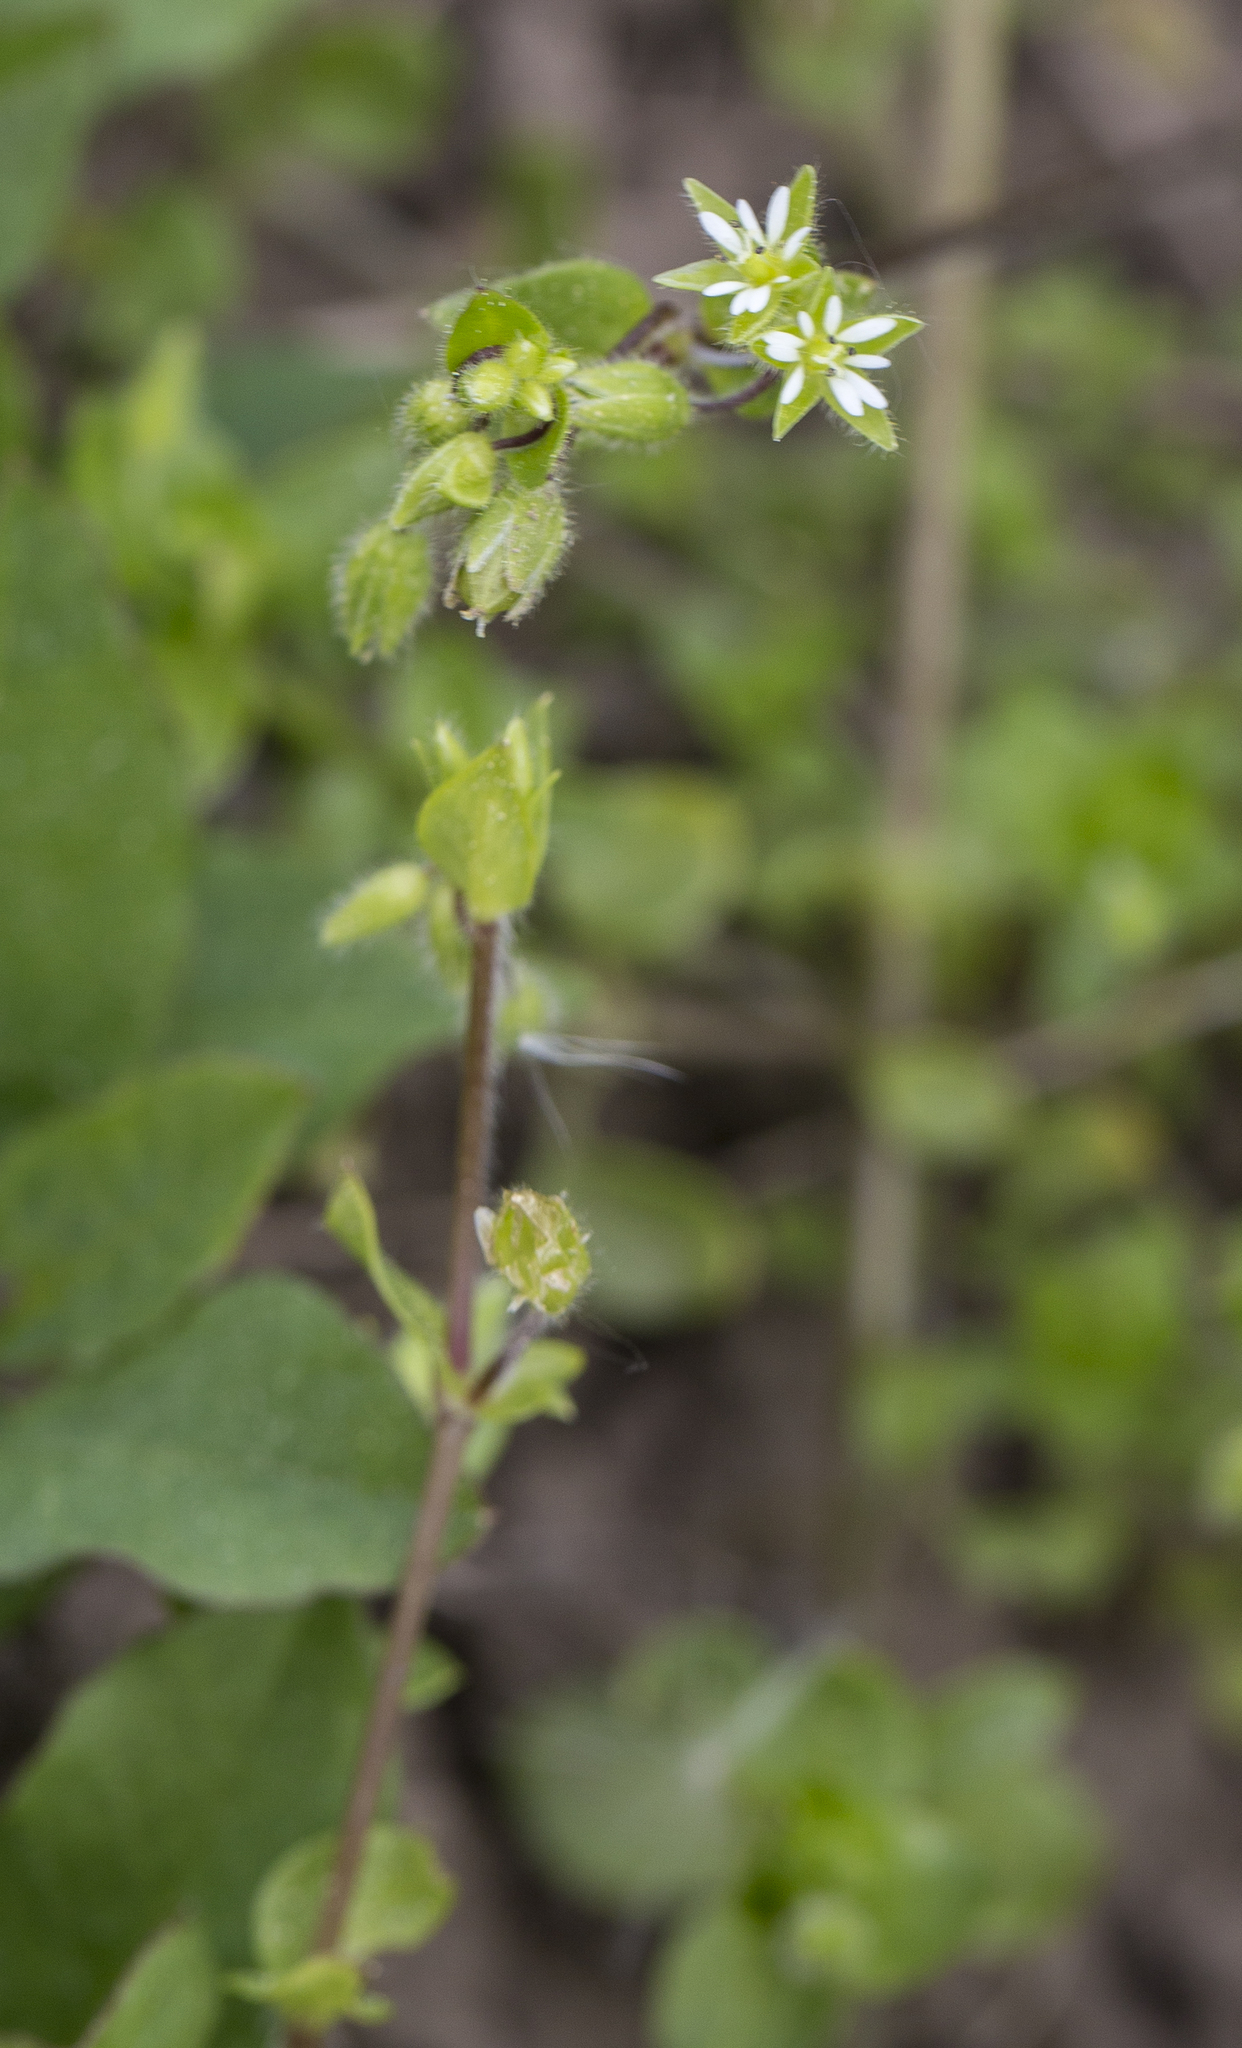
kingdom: Plantae
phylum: Tracheophyta
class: Magnoliopsida
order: Caryophyllales
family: Caryophyllaceae
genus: Stellaria
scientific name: Stellaria media
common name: Common chickweed
